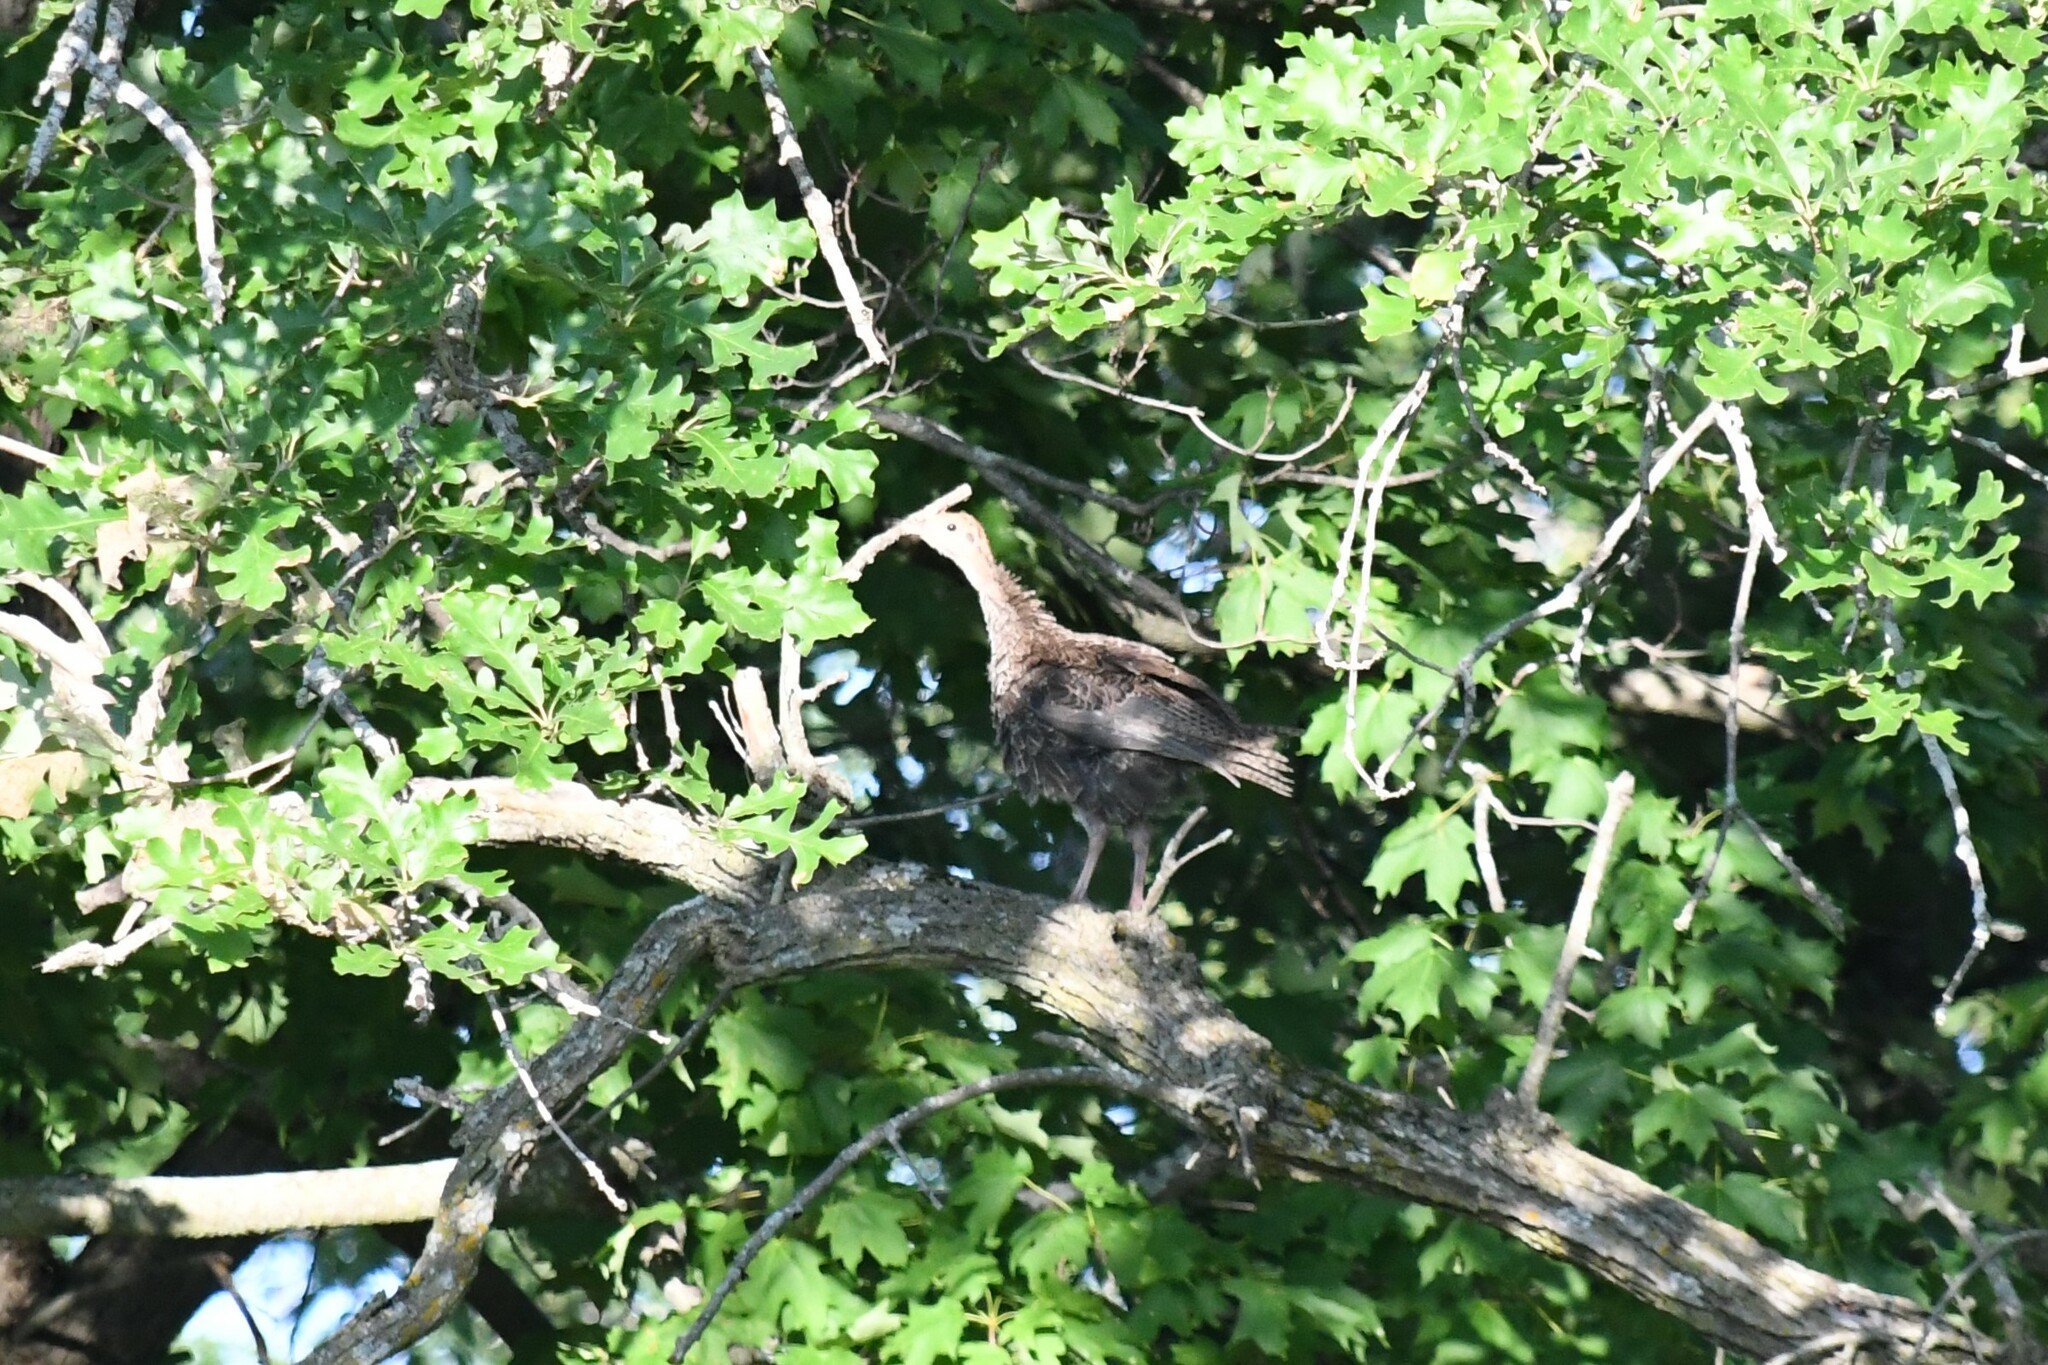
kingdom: Animalia
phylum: Chordata
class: Aves
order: Galliformes
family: Phasianidae
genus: Meleagris
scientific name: Meleagris gallopavo
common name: Wild turkey
